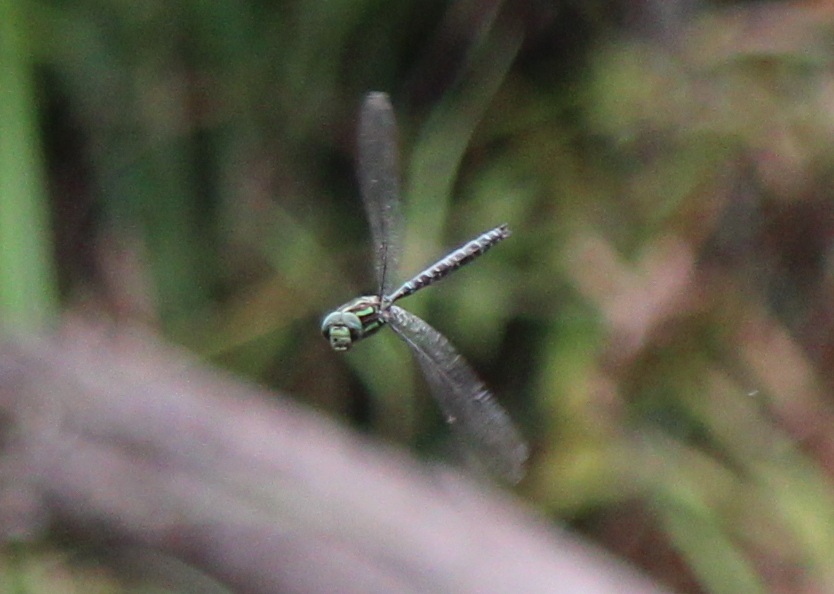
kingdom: Animalia
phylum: Arthropoda
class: Insecta
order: Odonata
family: Aeshnidae
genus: Aeshna
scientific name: Aeshna umbrosa
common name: Shadow darner
